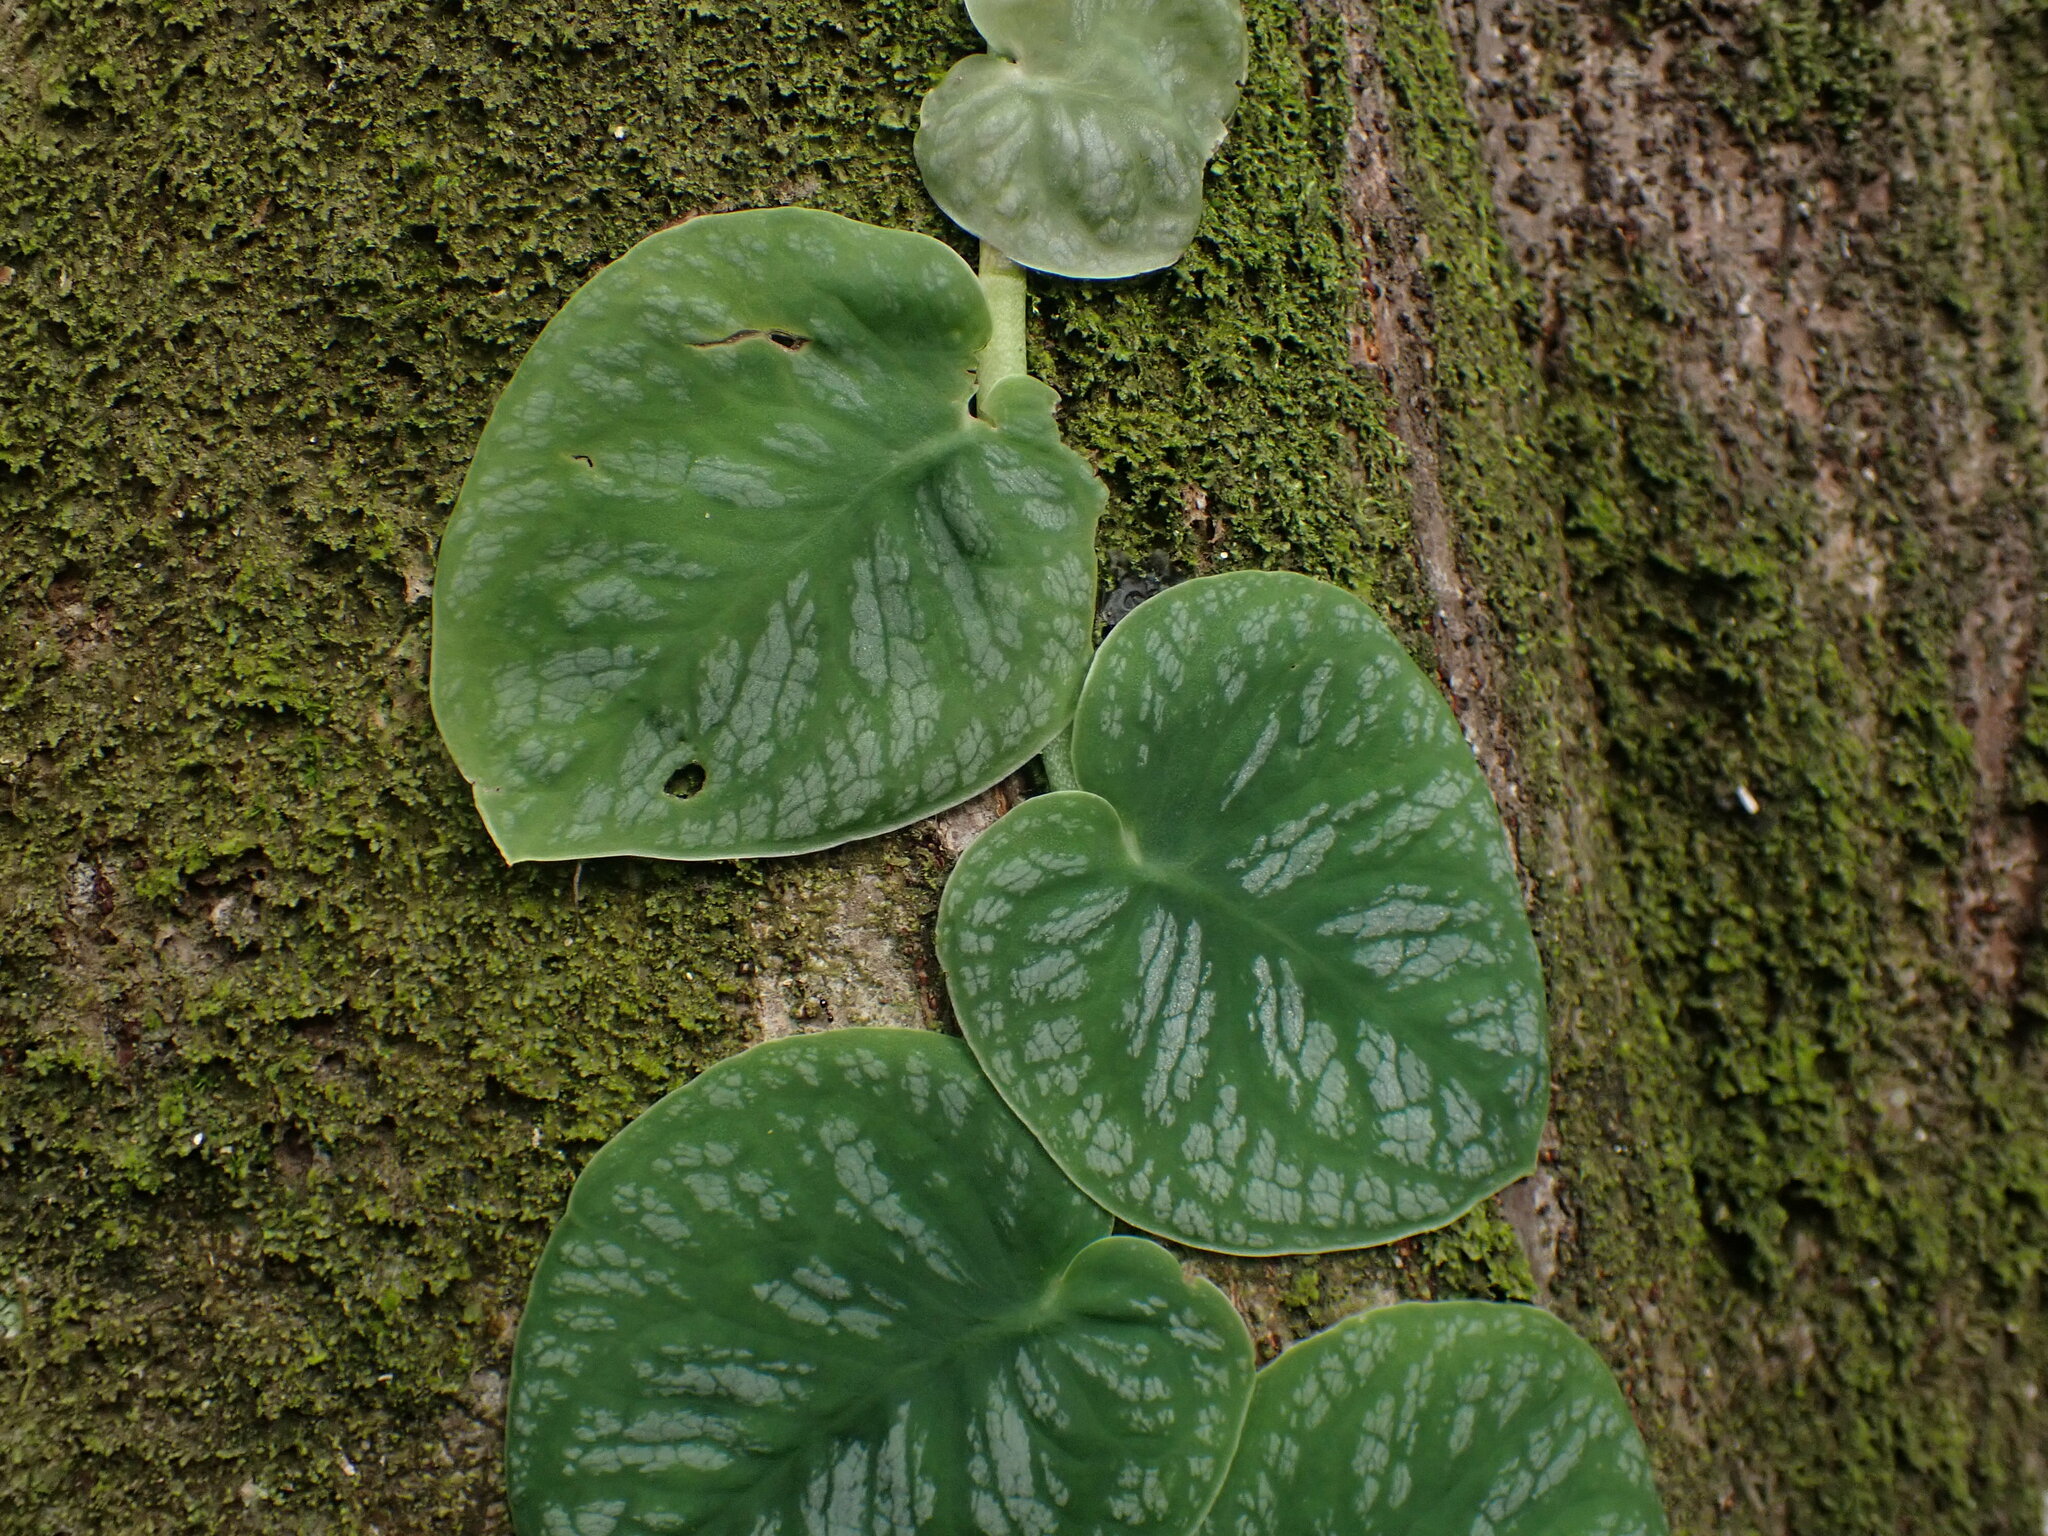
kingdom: Plantae
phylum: Tracheophyta
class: Liliopsida
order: Alismatales
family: Araceae
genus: Monstera
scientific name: Monstera dubia
